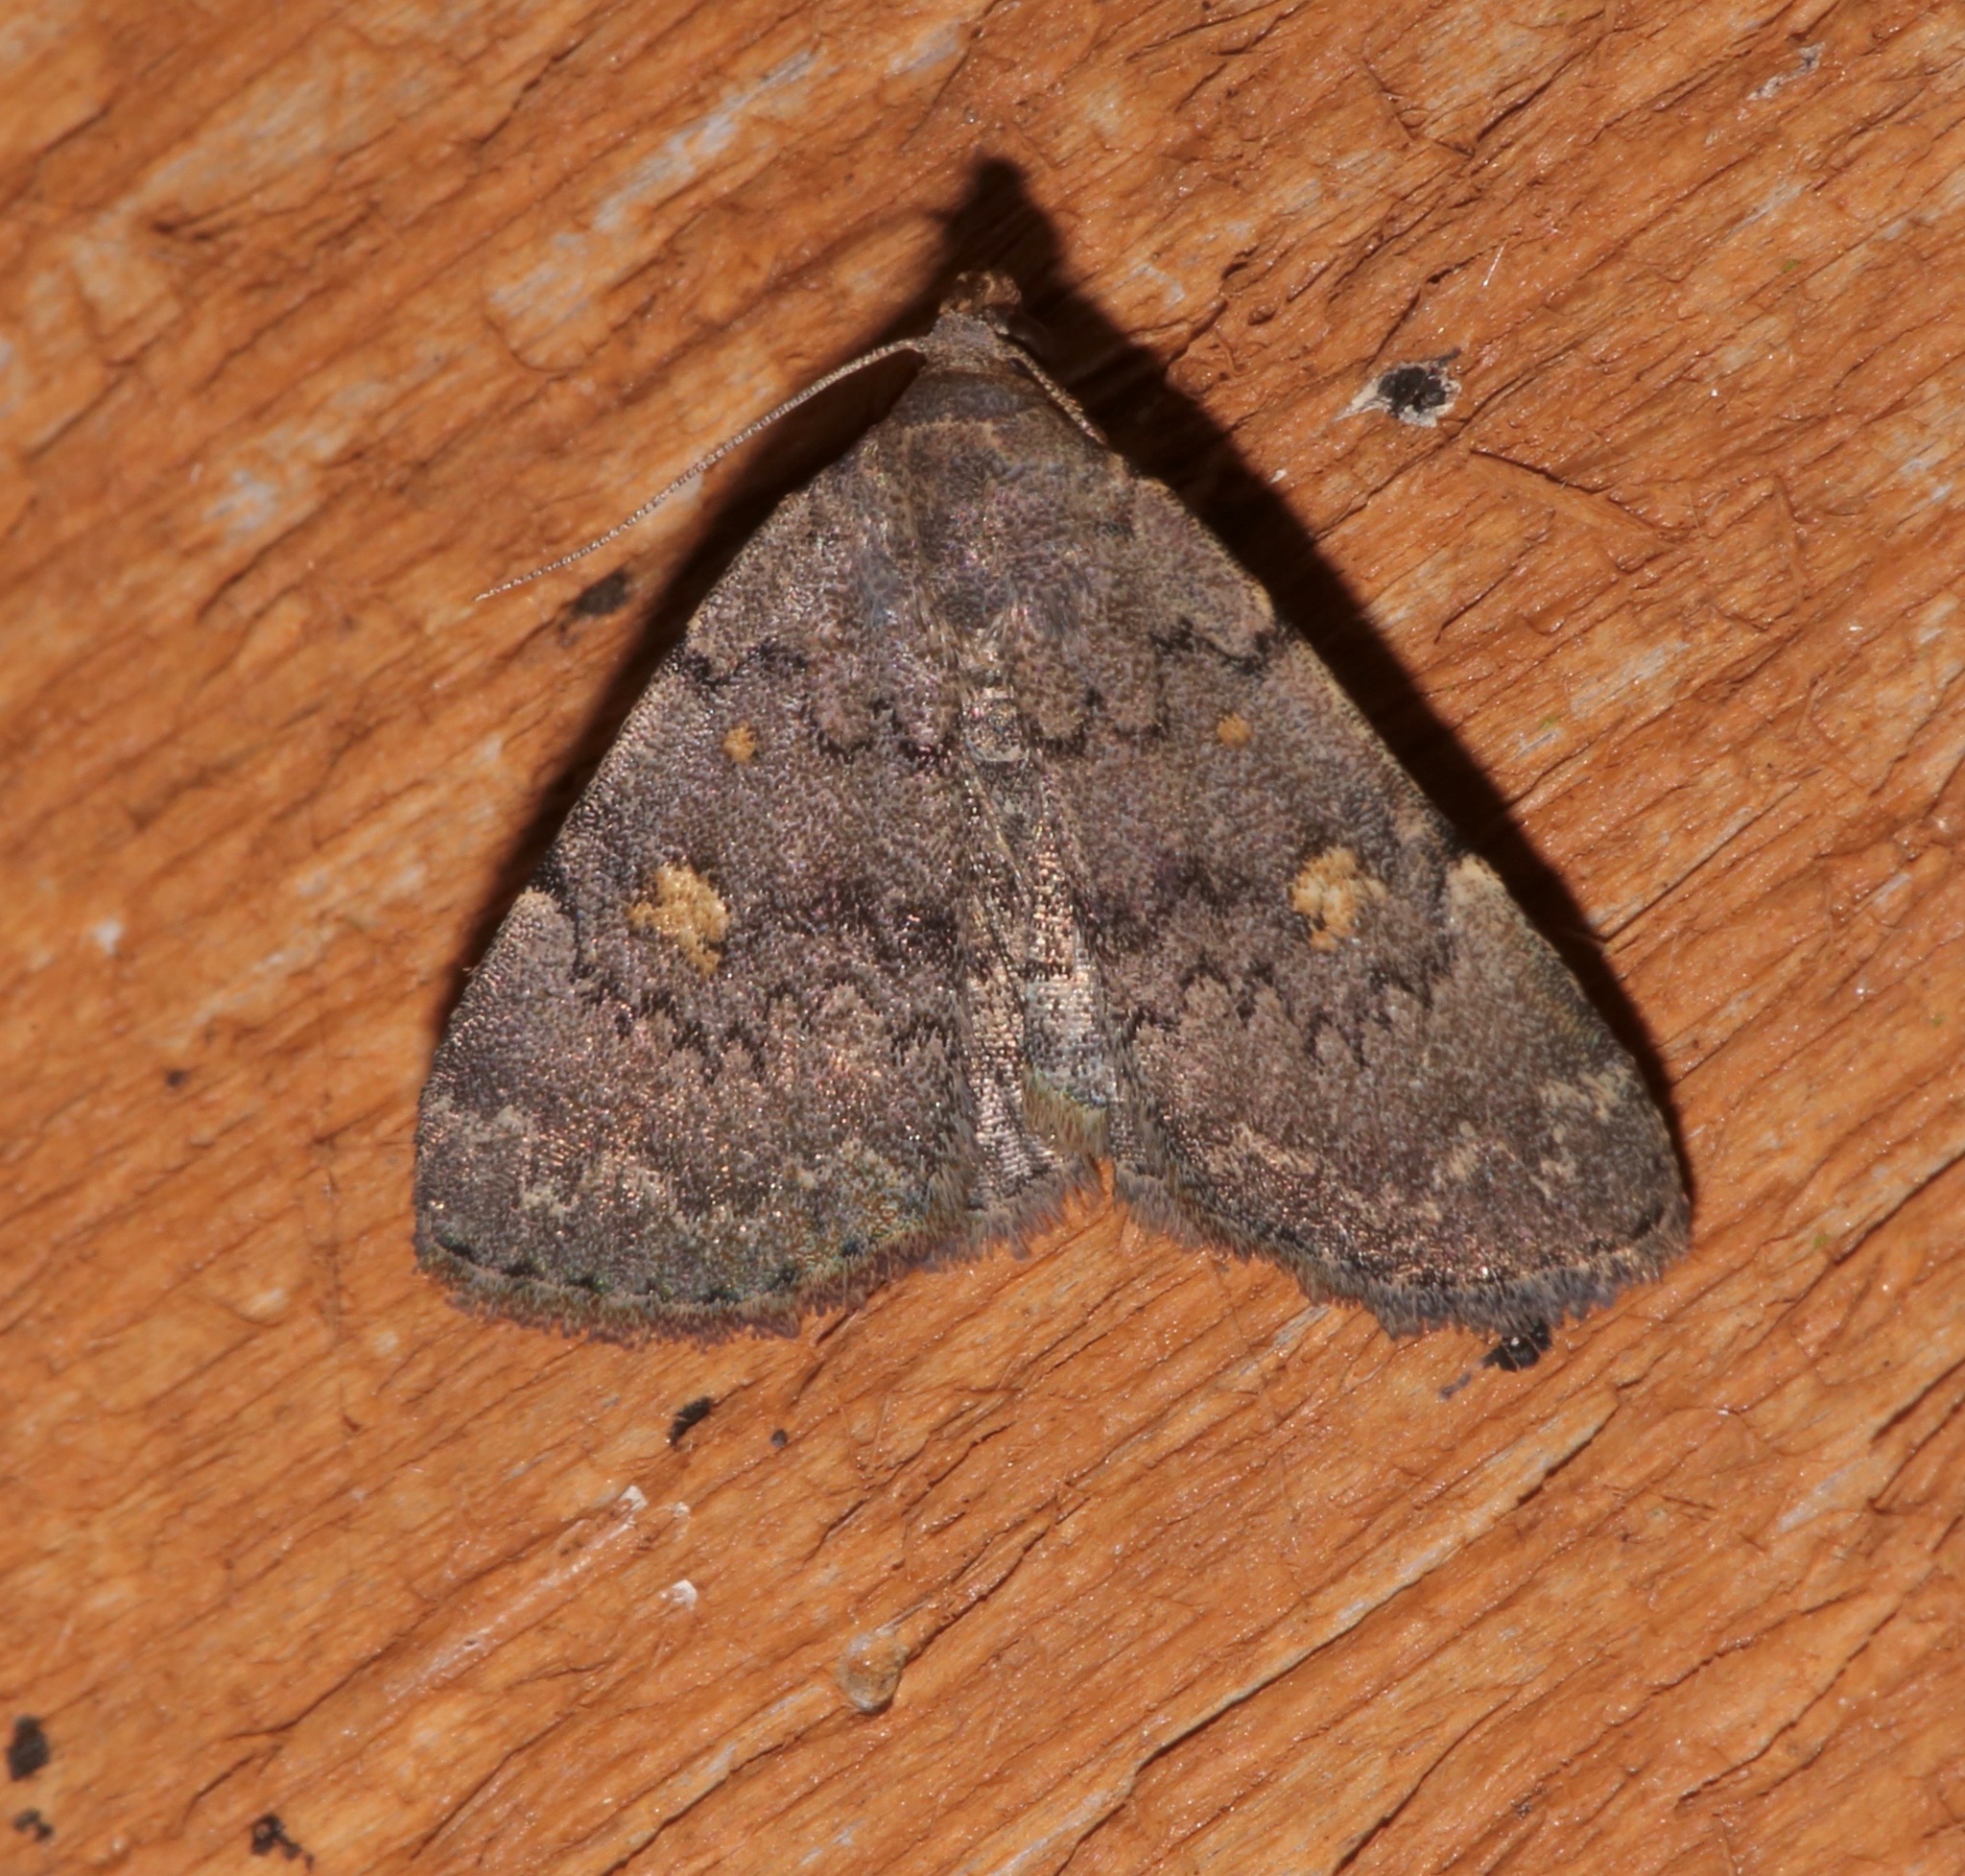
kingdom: Animalia
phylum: Arthropoda
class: Insecta
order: Lepidoptera
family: Erebidae
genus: Idia
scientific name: Idia aemula
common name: Common idia moth
